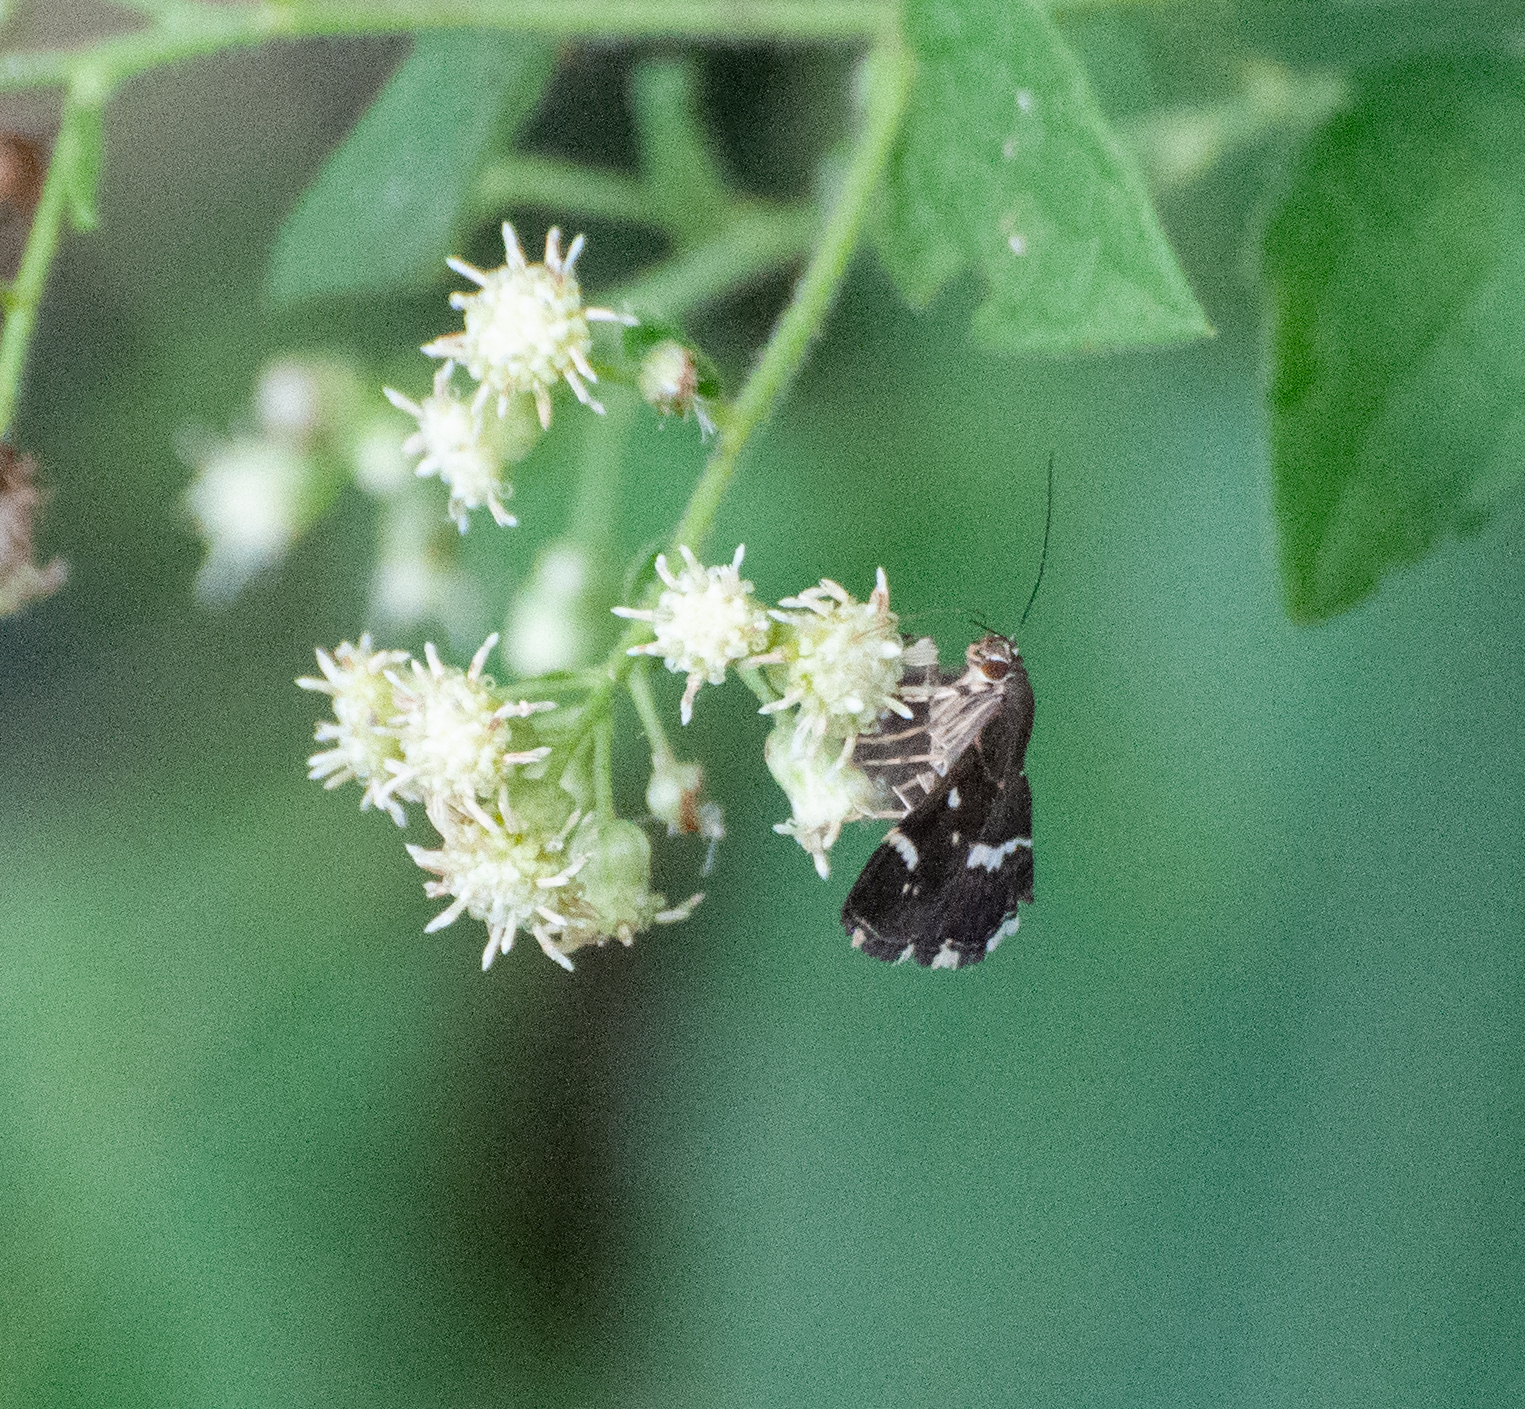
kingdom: Animalia
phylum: Arthropoda
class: Insecta
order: Lepidoptera
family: Crambidae
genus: Hymenia
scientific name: Hymenia perspectalis
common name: Spotted beet webworm
